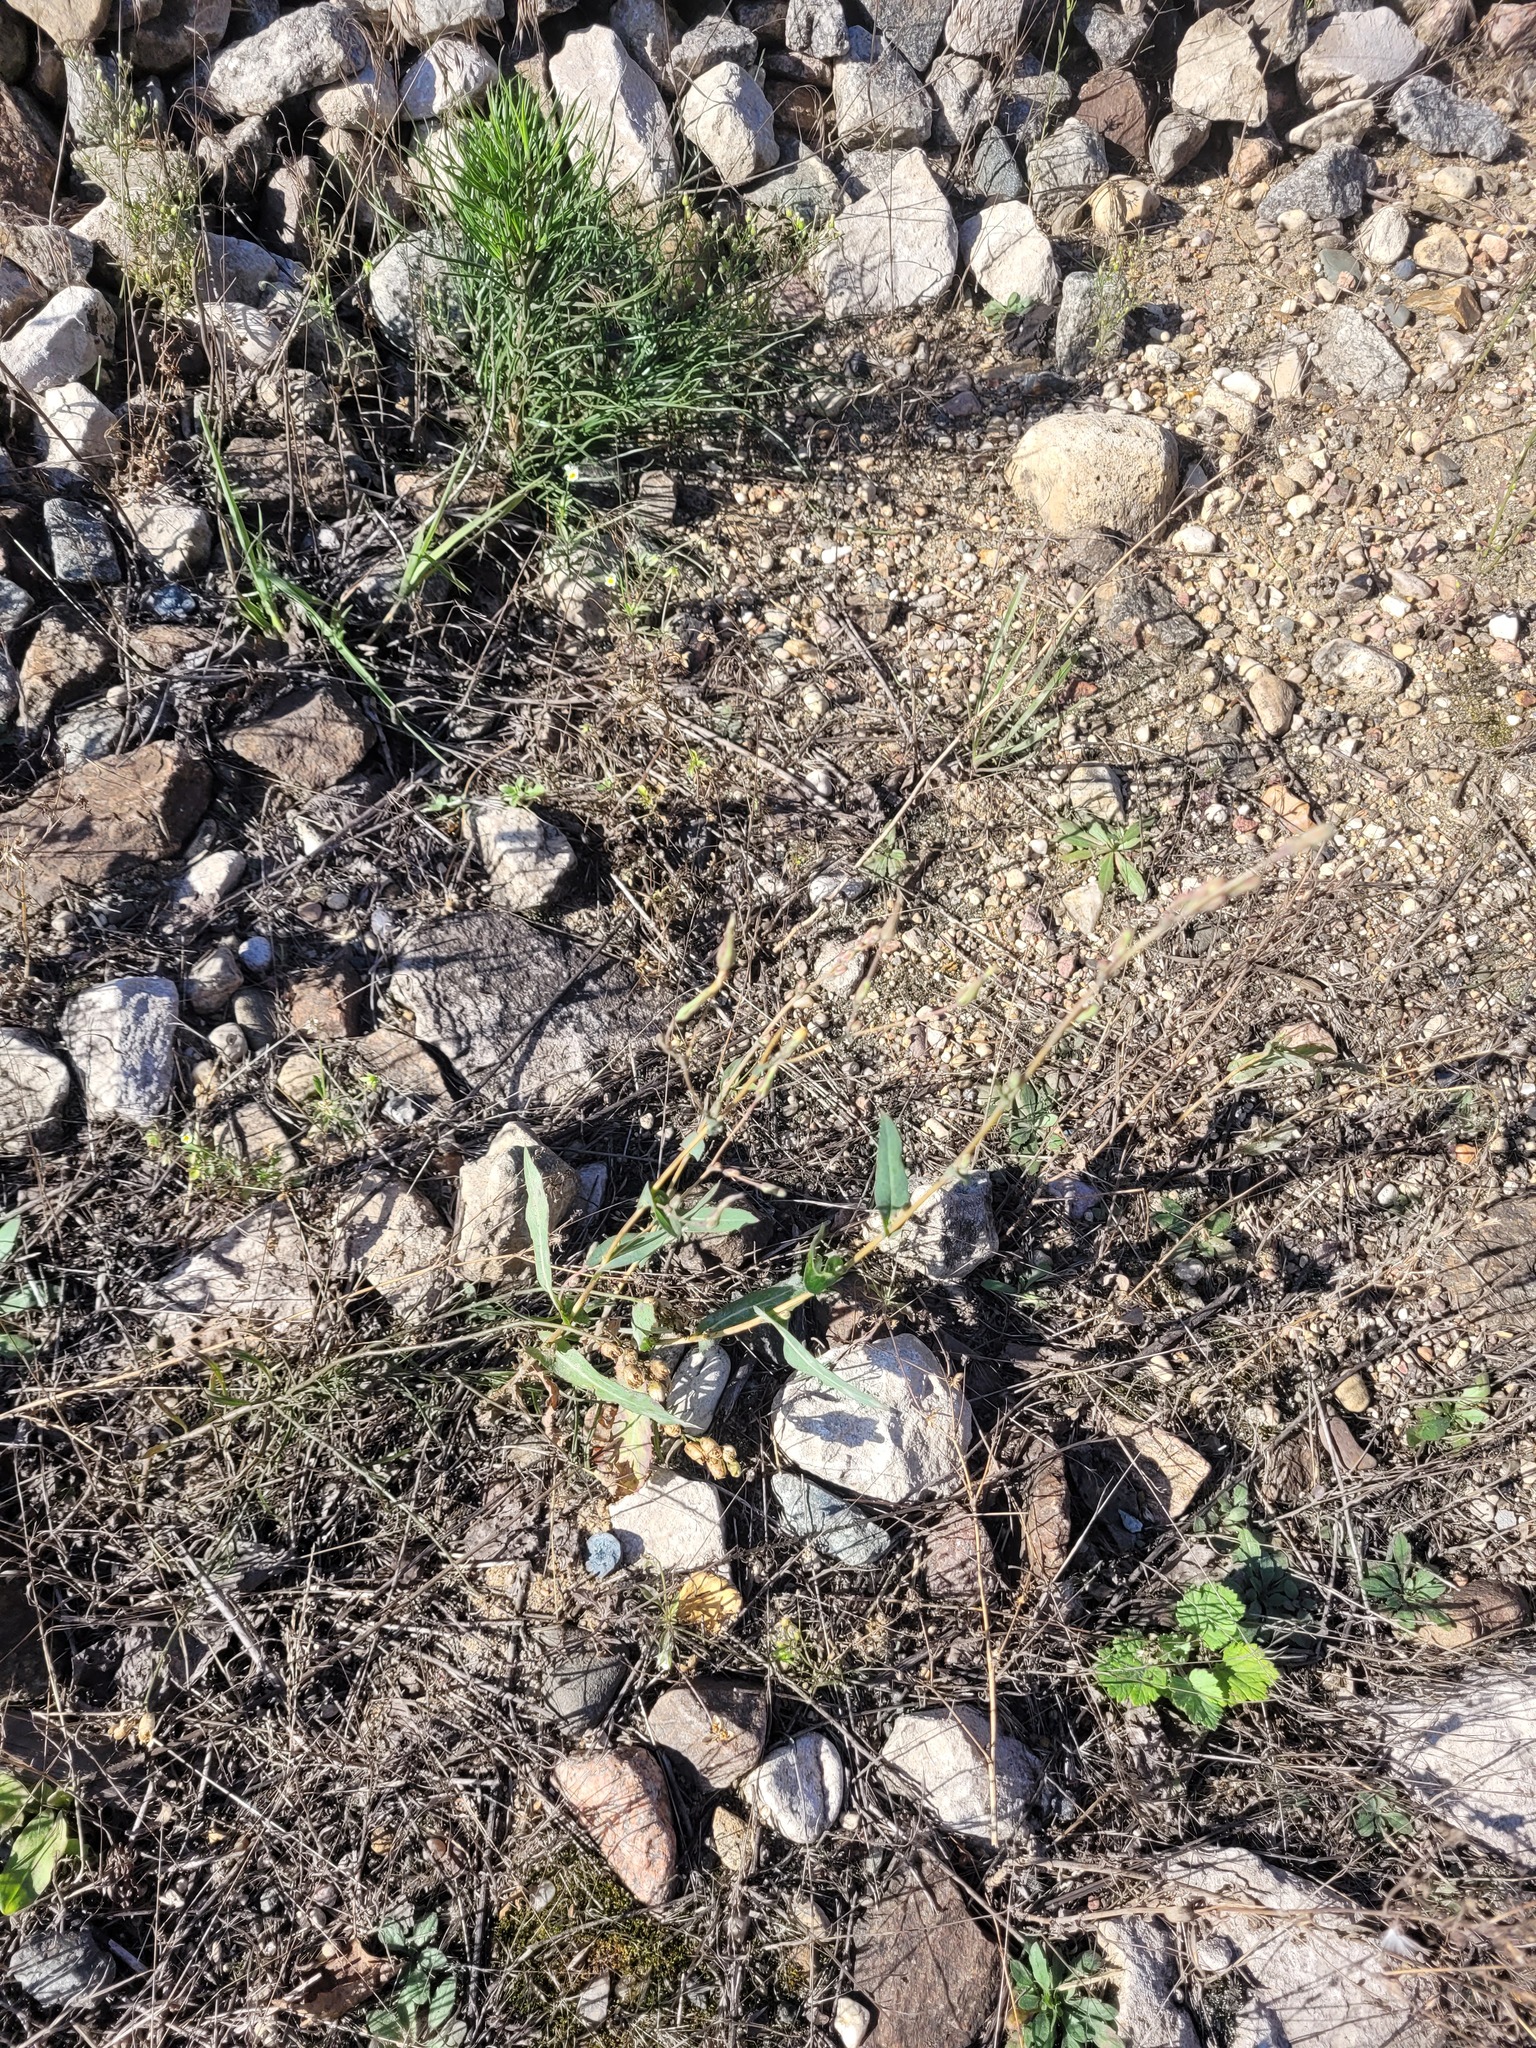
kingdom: Plantae
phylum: Tracheophyta
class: Magnoliopsida
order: Asterales
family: Asteraceae
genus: Lactuca
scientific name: Lactuca serriola
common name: Prickly lettuce
